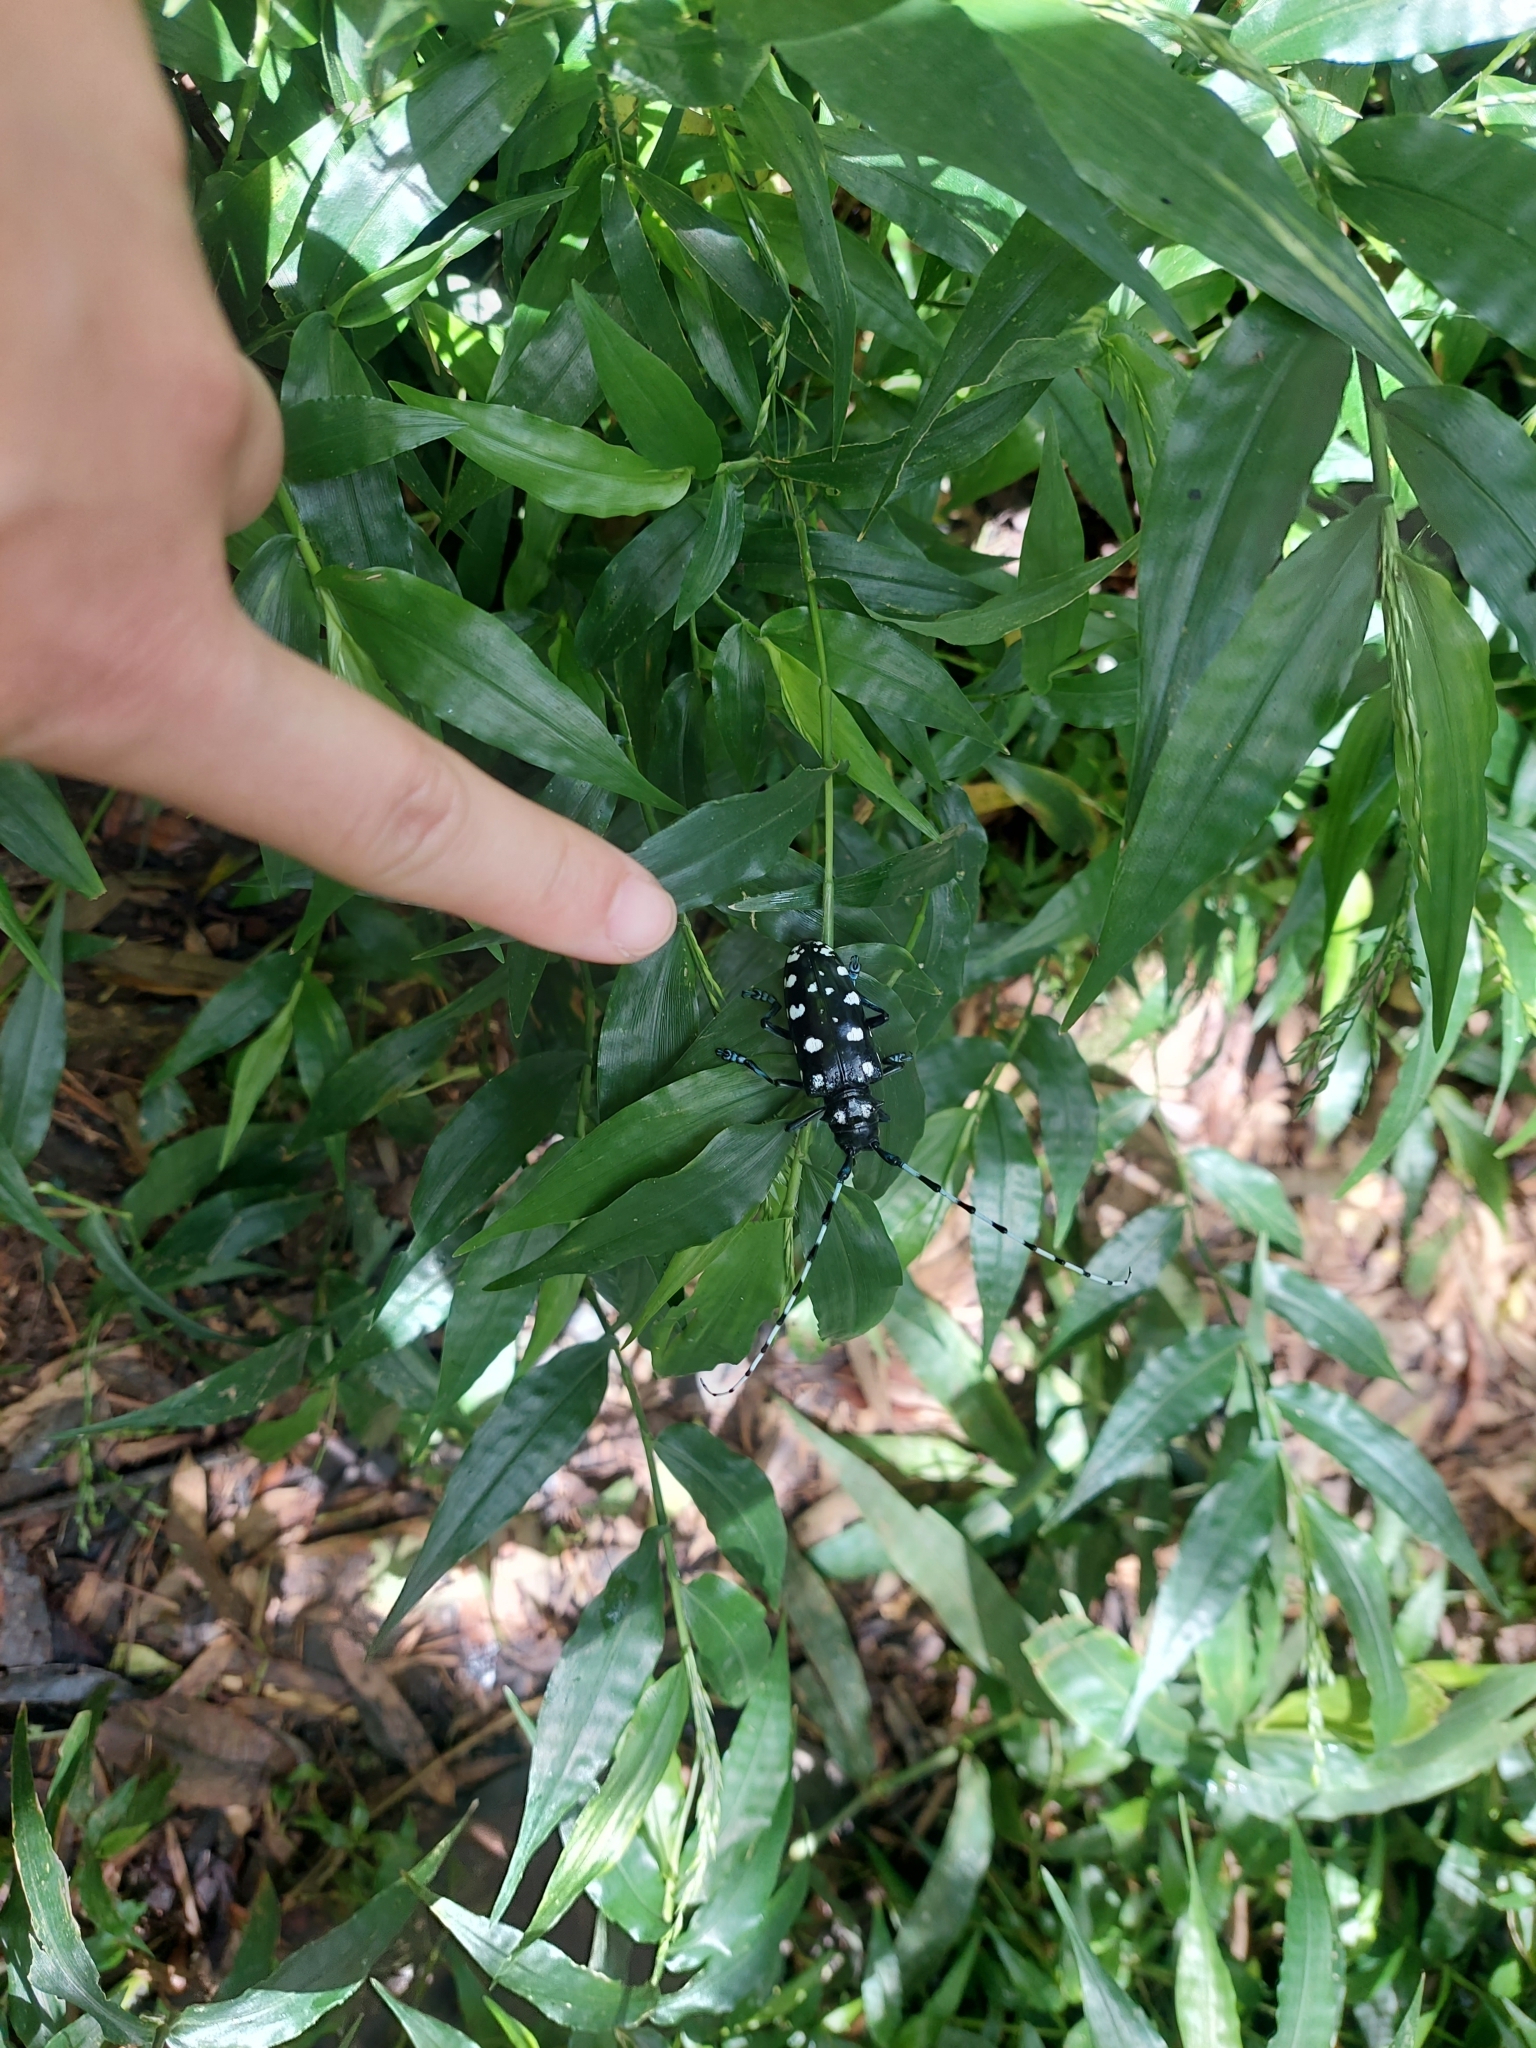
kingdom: Animalia
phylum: Arthropoda
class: Insecta
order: Coleoptera
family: Cerambycidae
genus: Anoplophora
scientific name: Anoplophora macularia
